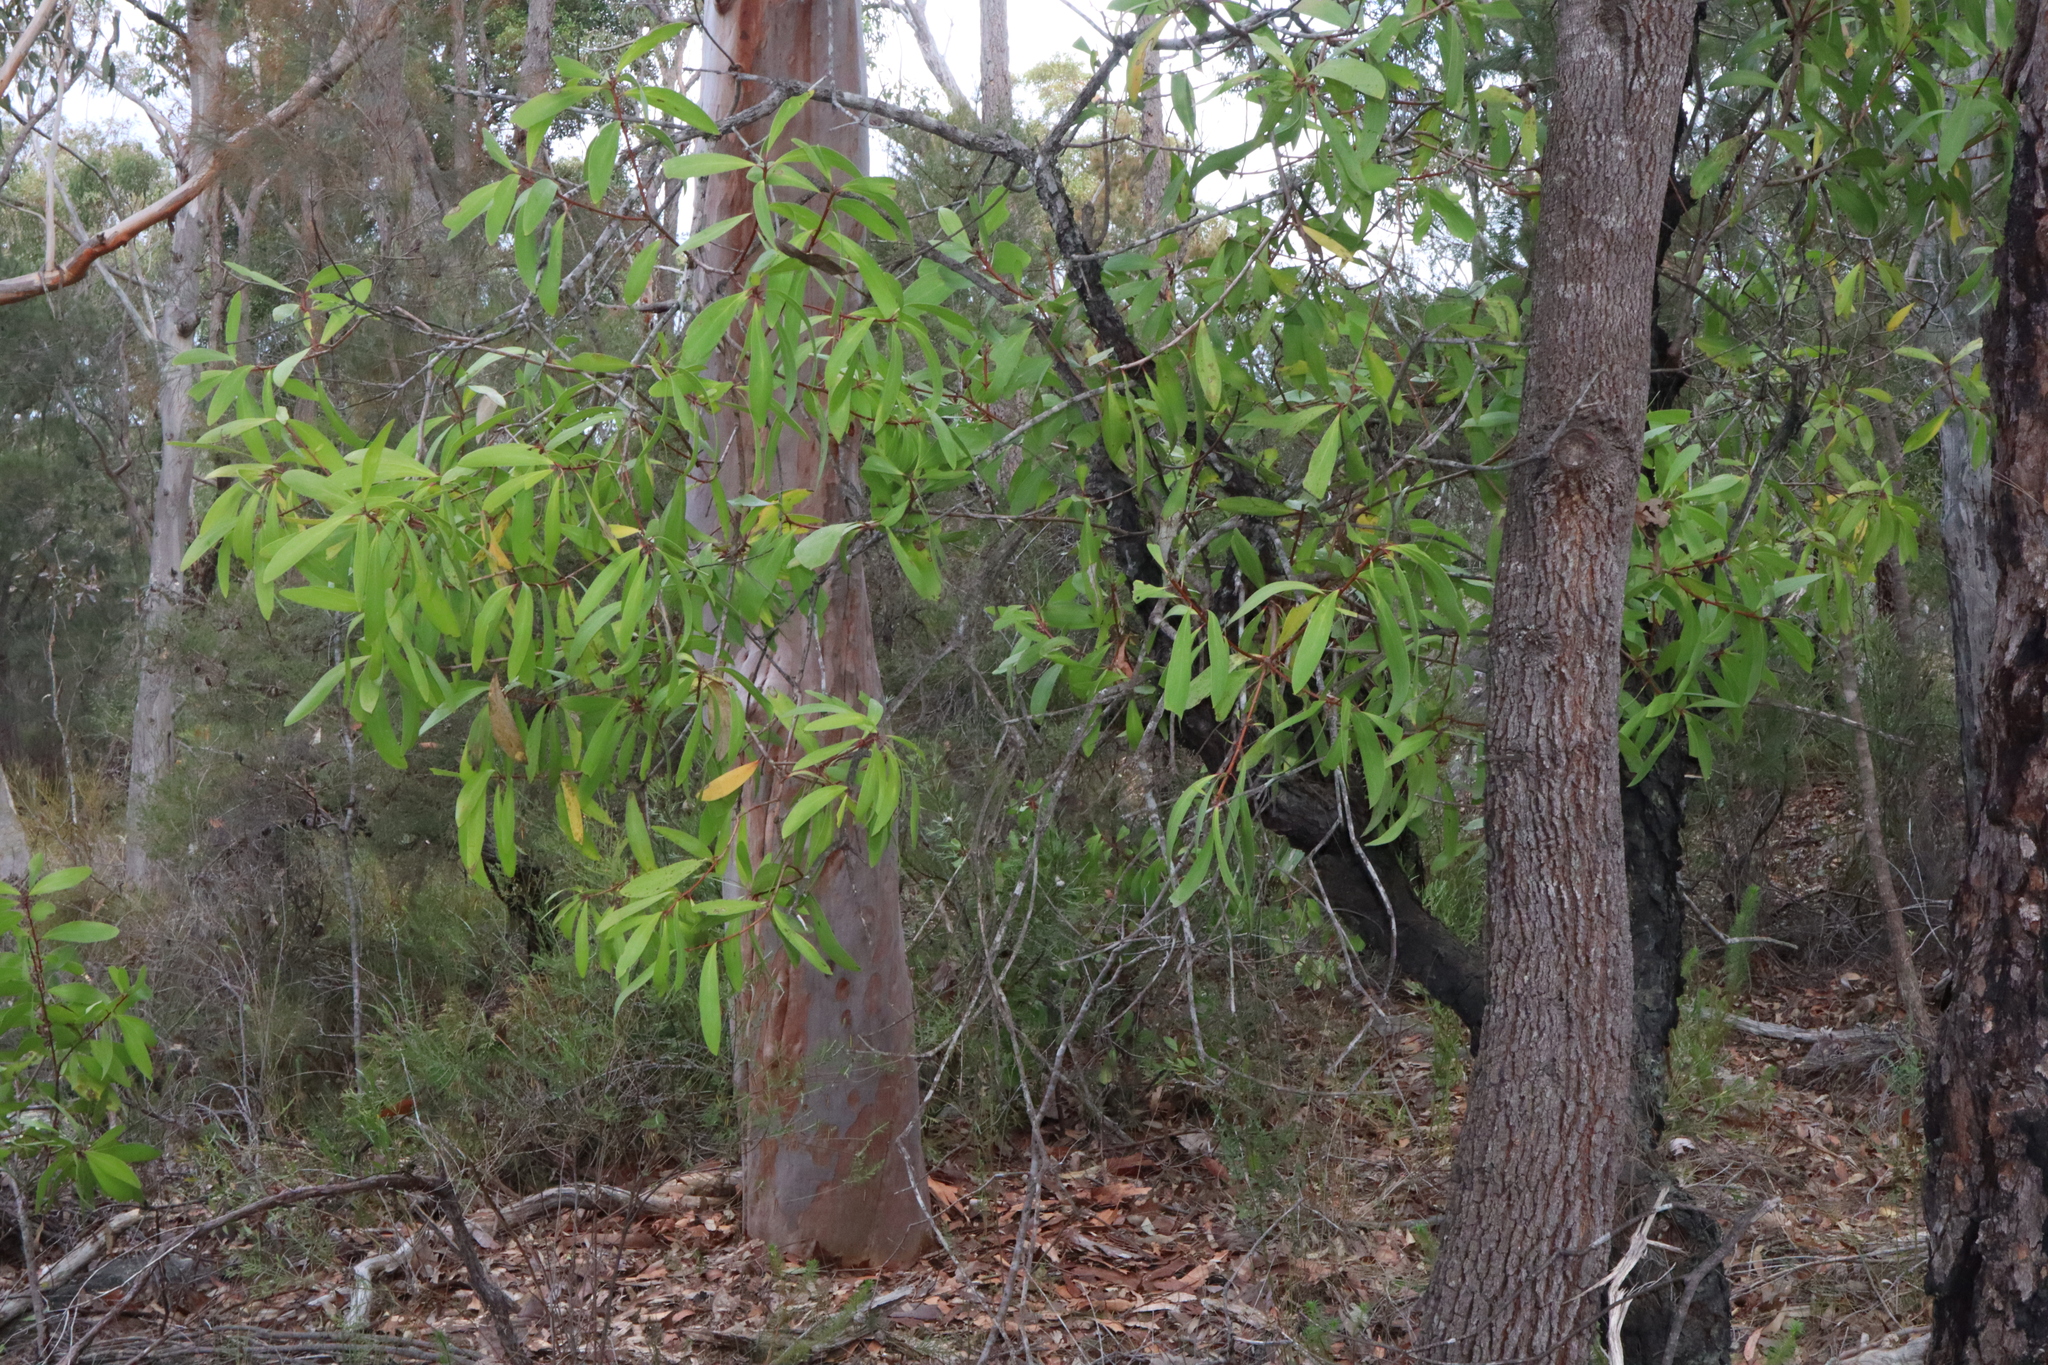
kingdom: Plantae
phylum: Tracheophyta
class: Magnoliopsida
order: Proteales
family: Proteaceae
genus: Persoonia
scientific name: Persoonia levis
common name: Smooth geebung
